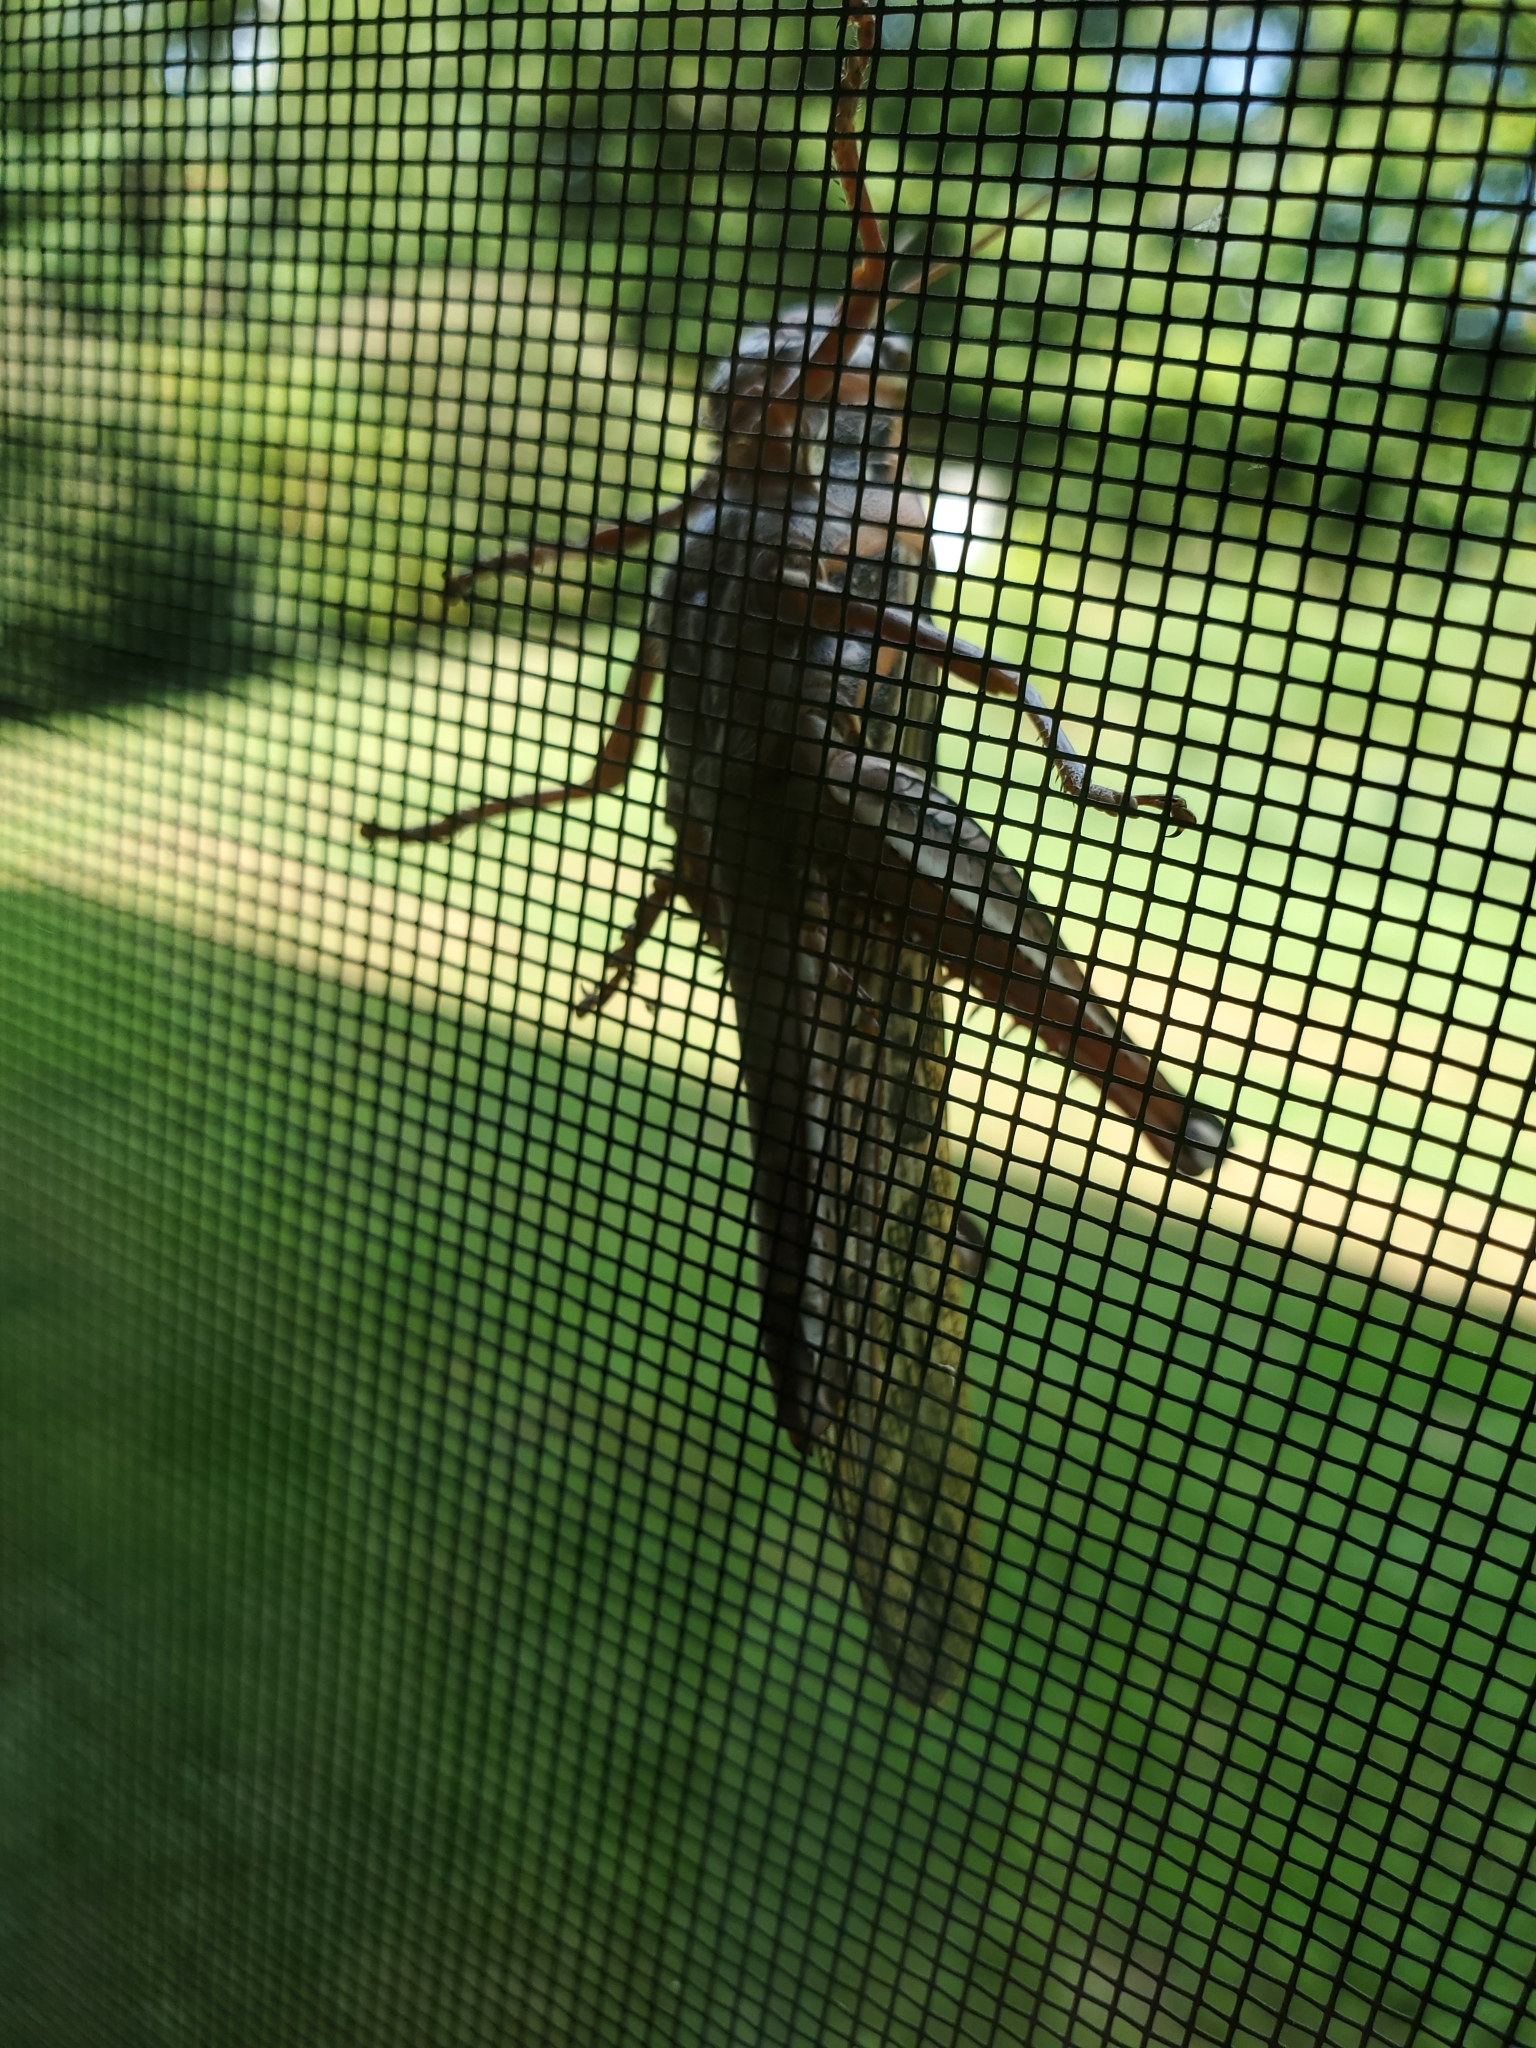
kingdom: Animalia
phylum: Arthropoda
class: Insecta
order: Orthoptera
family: Acrididae
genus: Schistocerca
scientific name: Schistocerca americana
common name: American bird locust
